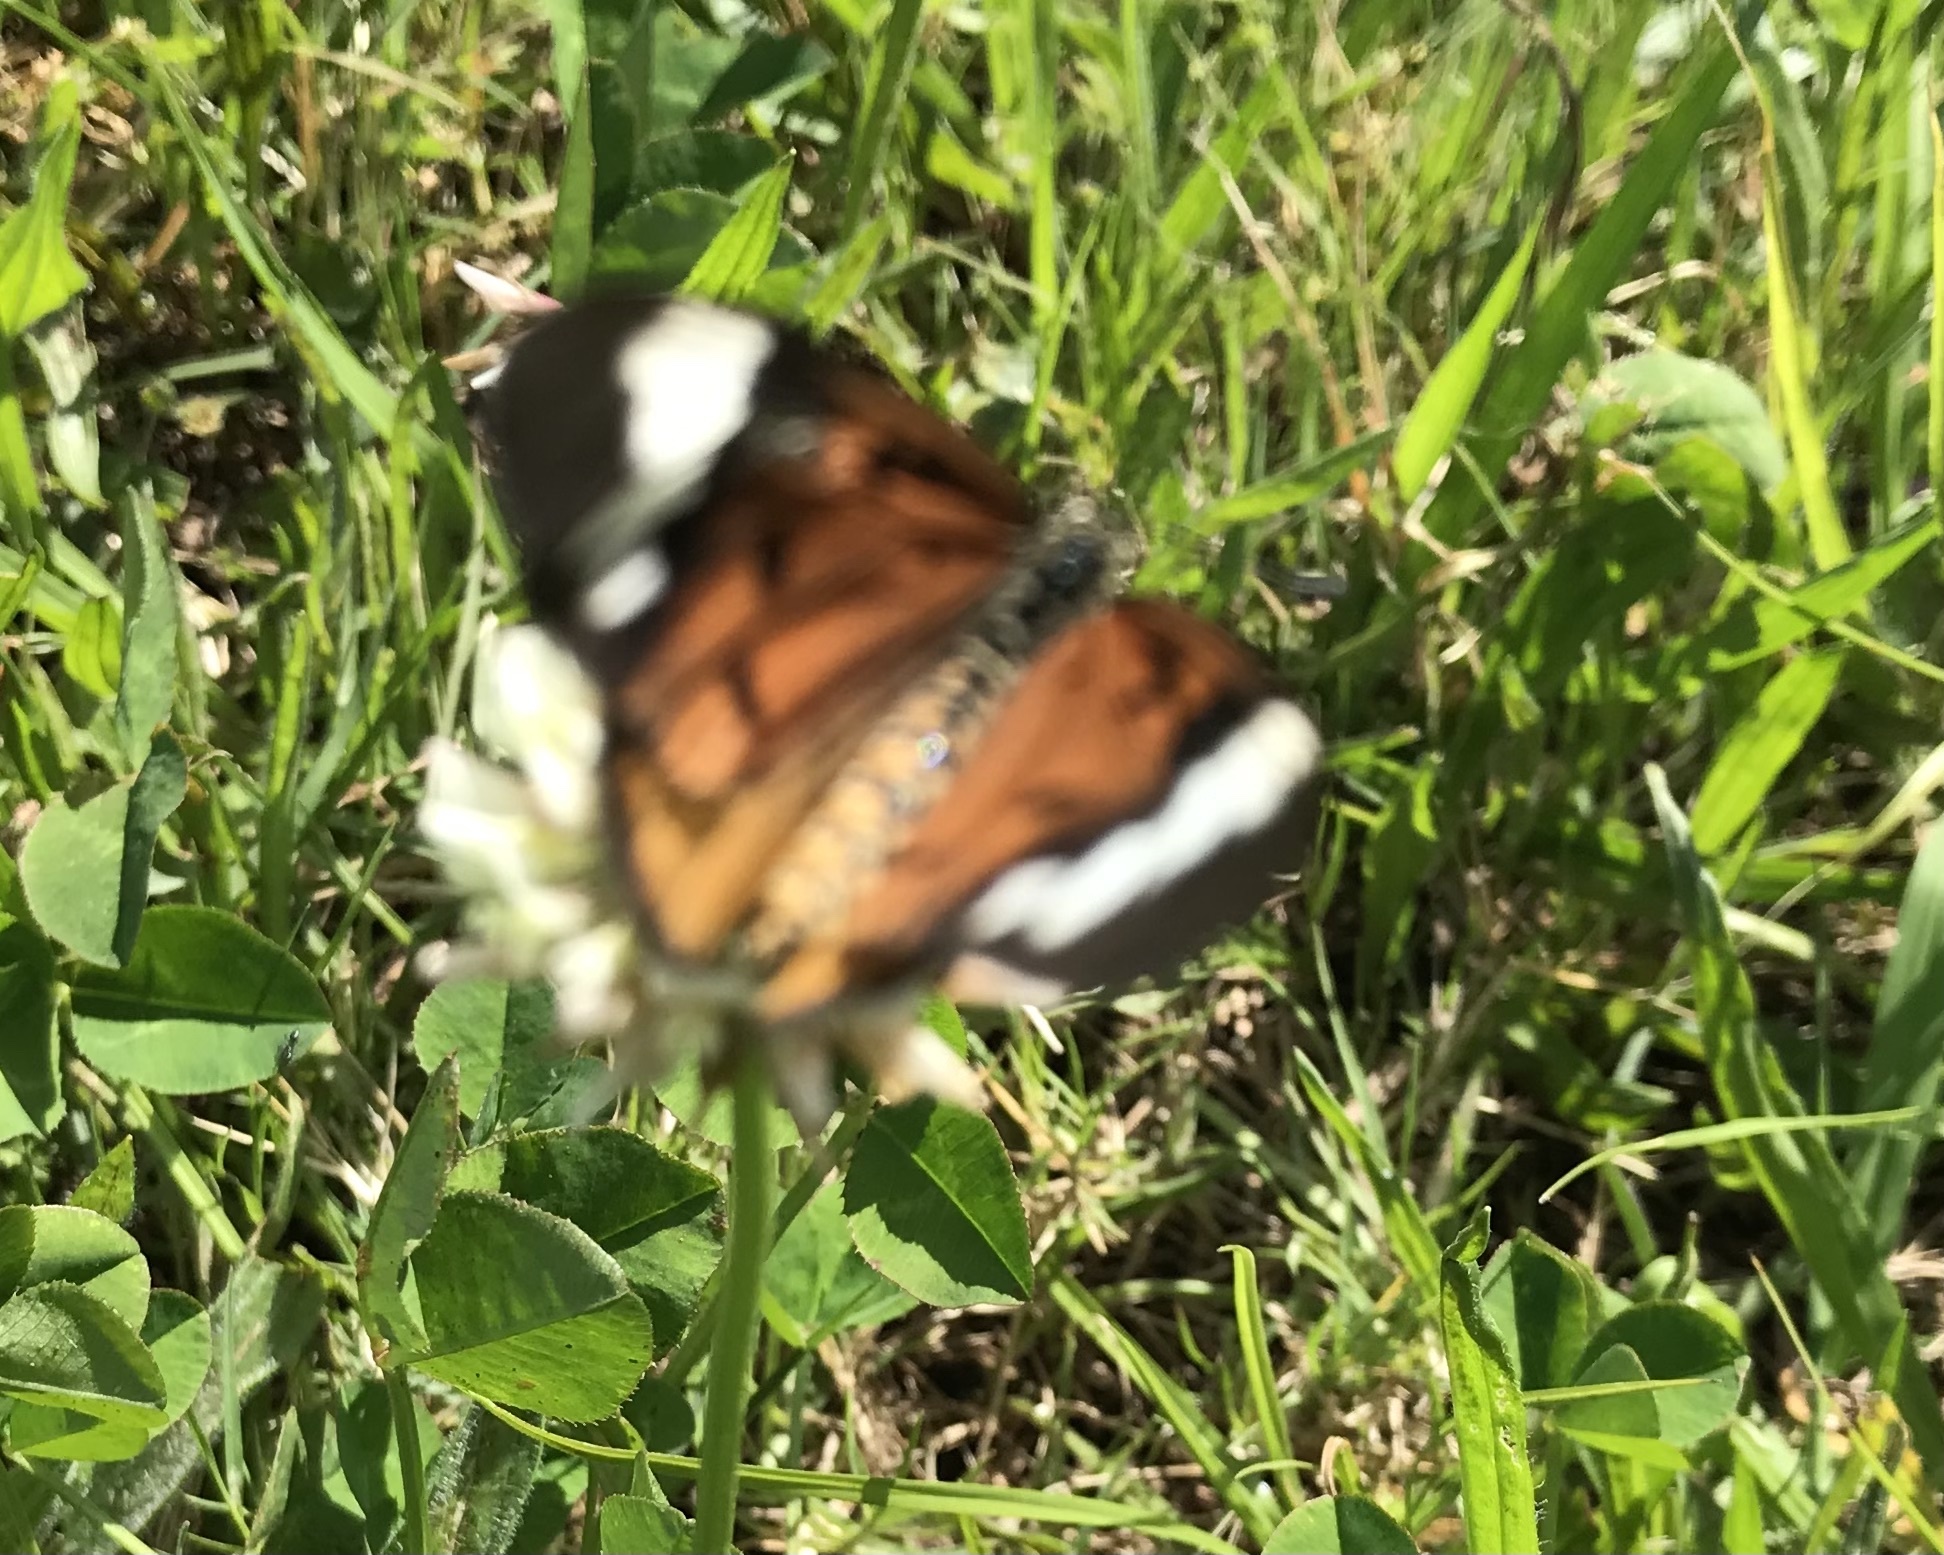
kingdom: Animalia
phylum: Arthropoda
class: Insecta
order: Lepidoptera
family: Nymphalidae
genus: Acraea
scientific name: Acraea Telchinia encedon
